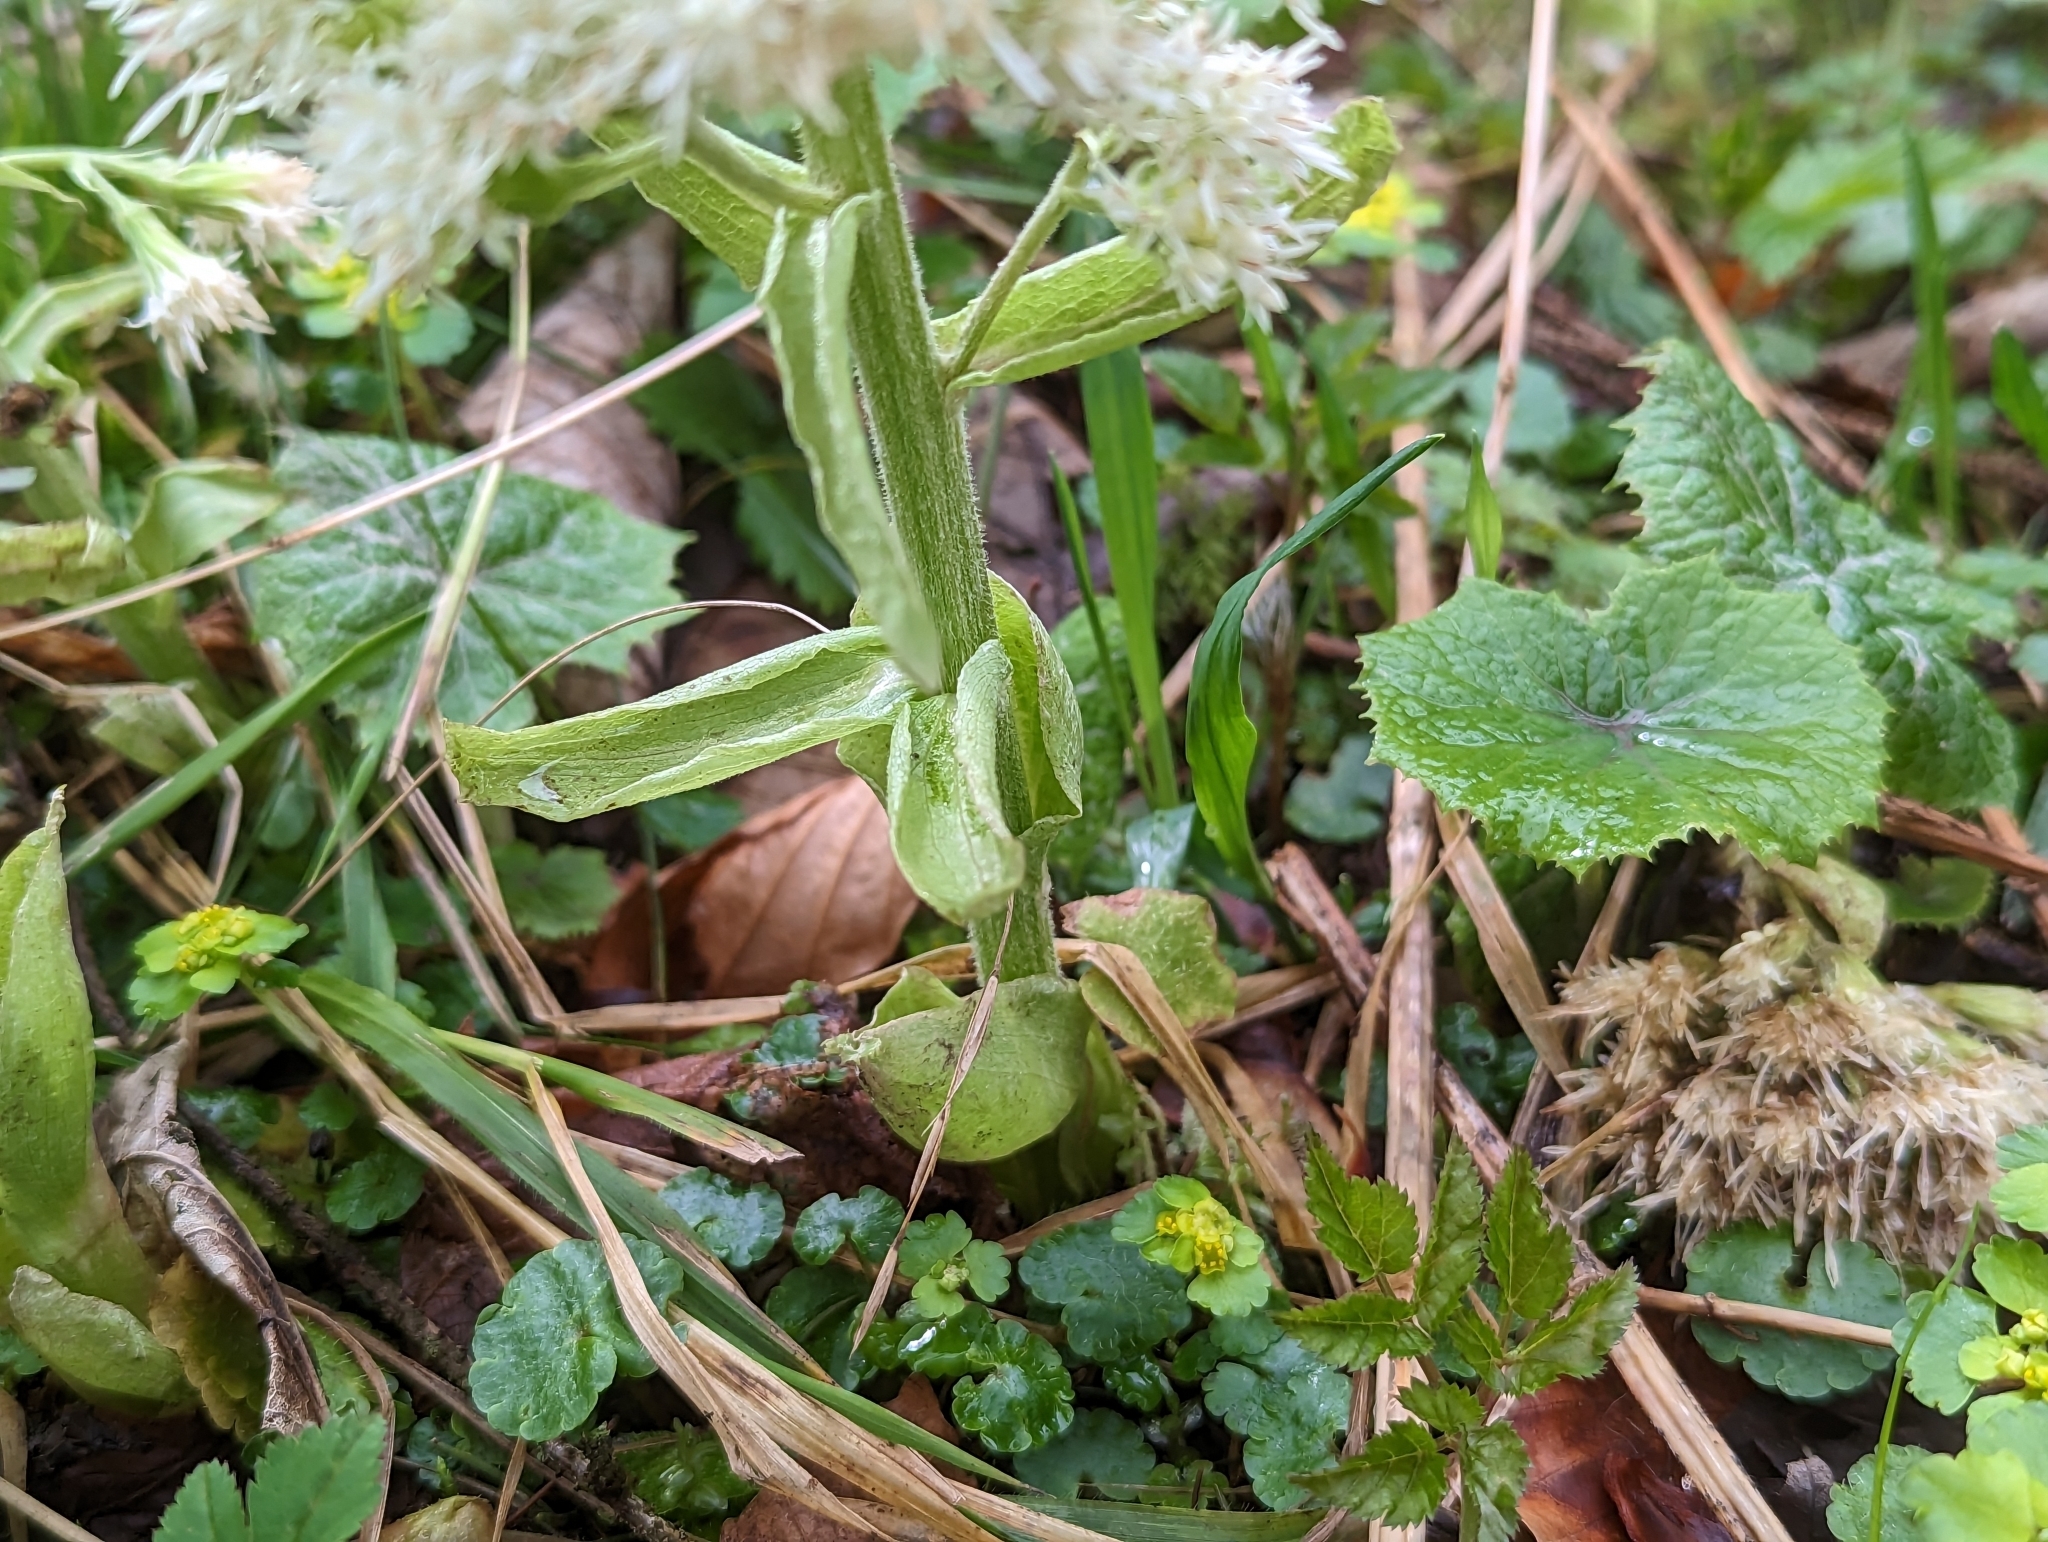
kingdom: Plantae
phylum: Tracheophyta
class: Magnoliopsida
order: Asterales
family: Asteraceae
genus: Petasites
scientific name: Petasites albus
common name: White butterbur
